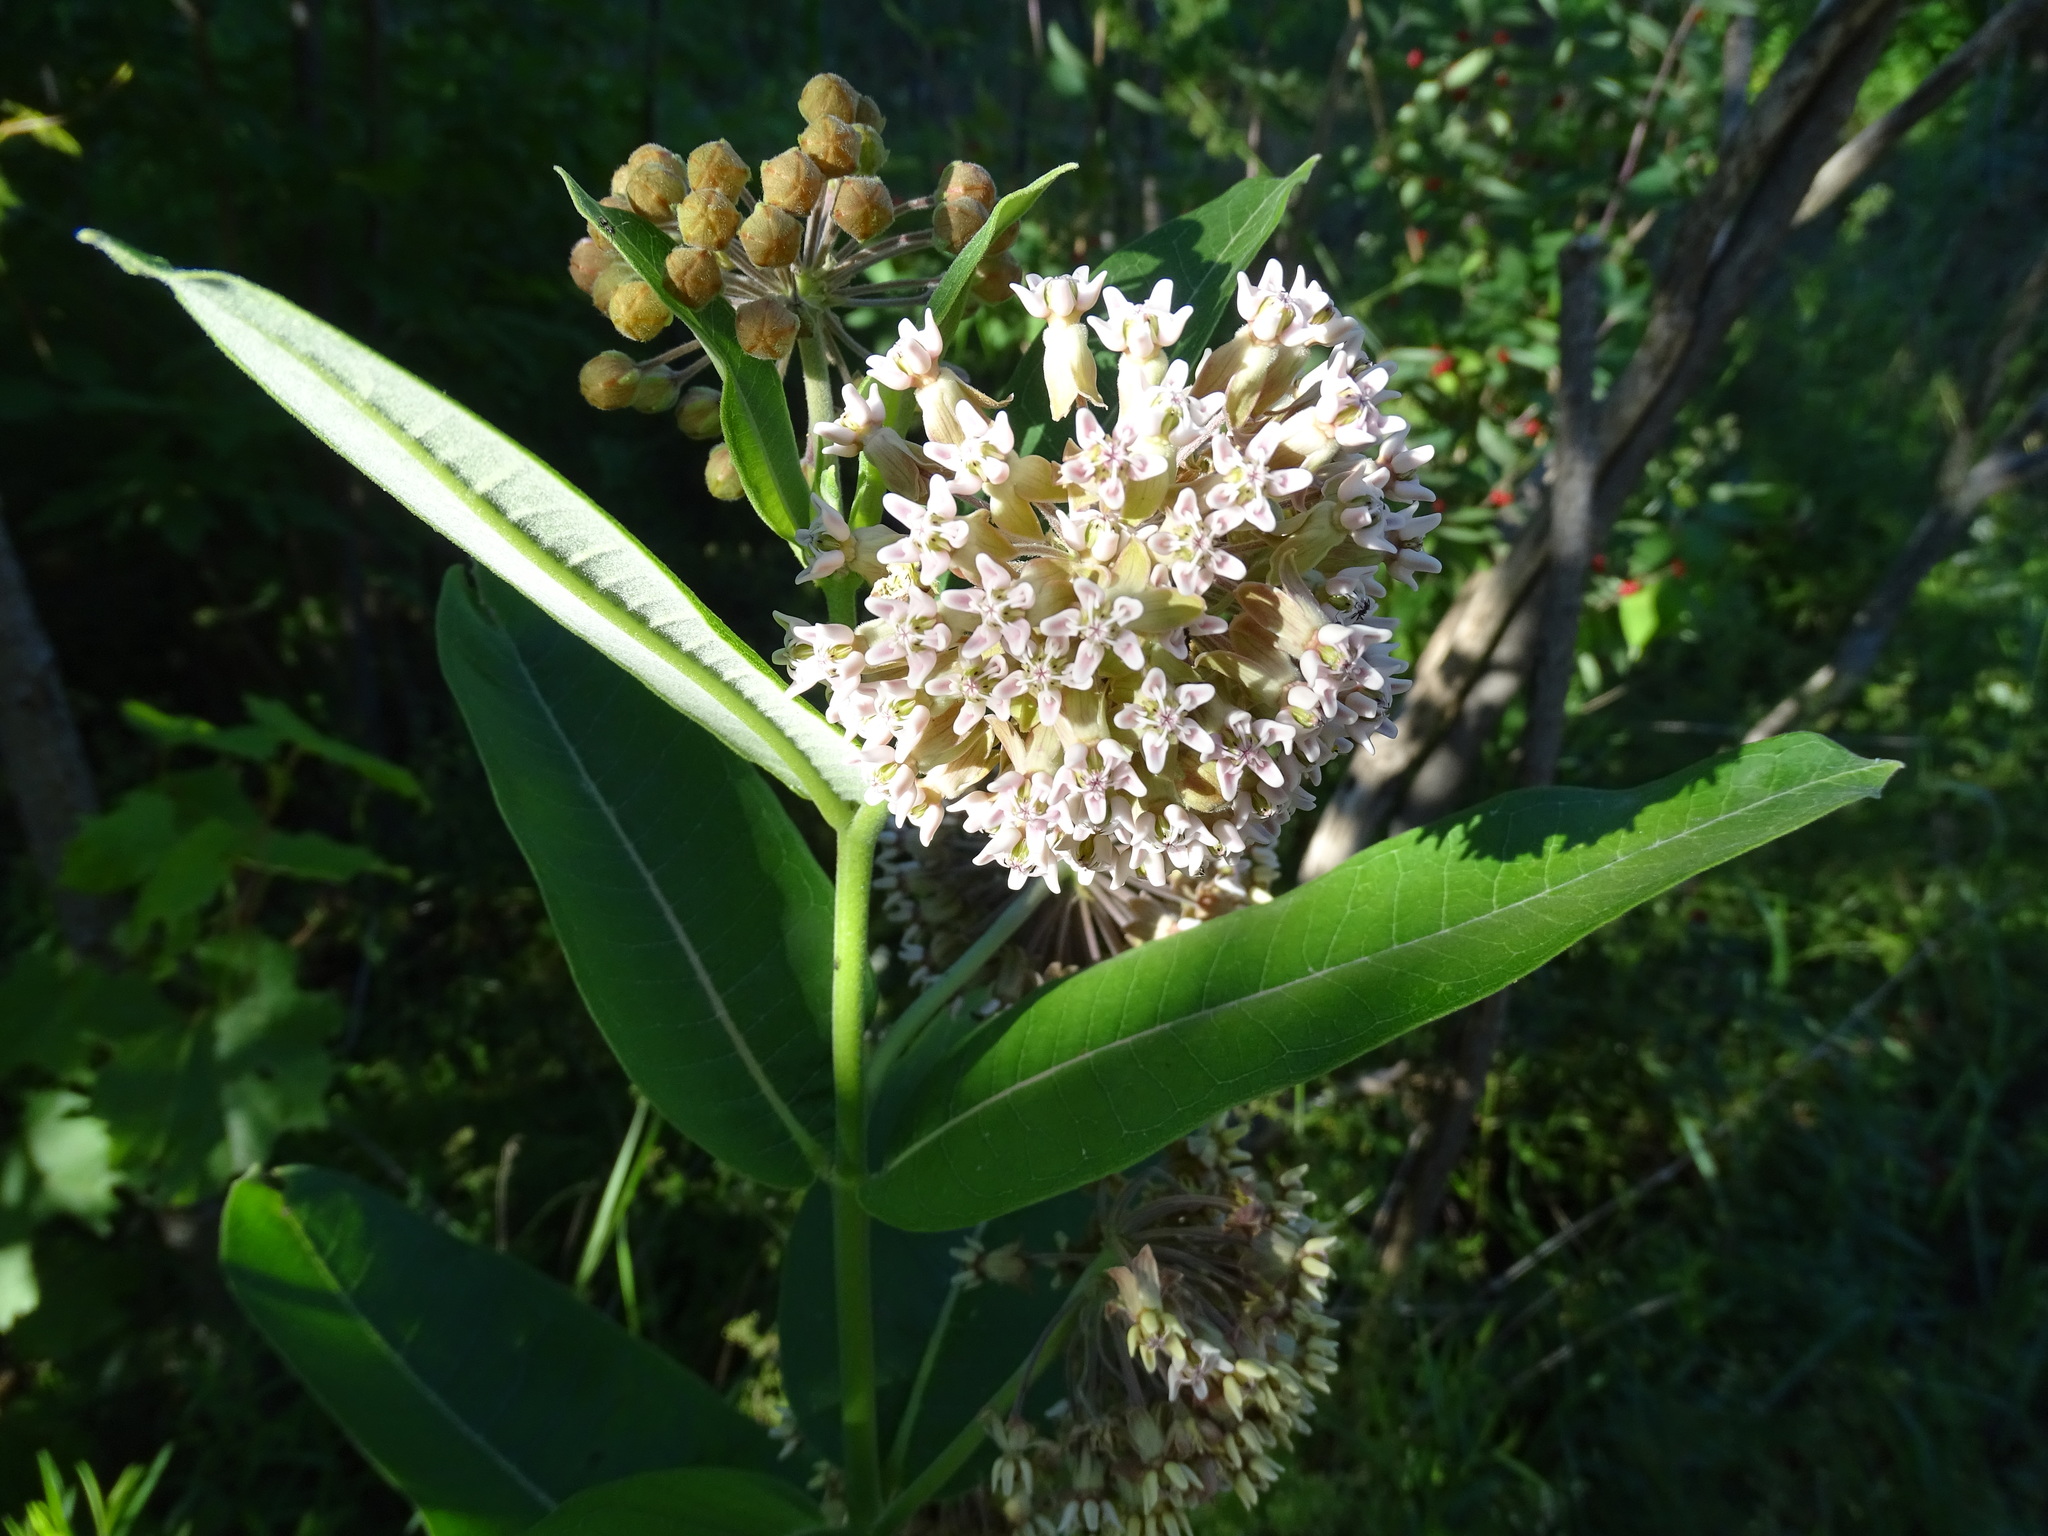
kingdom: Plantae
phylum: Tracheophyta
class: Magnoliopsida
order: Gentianales
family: Apocynaceae
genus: Asclepias
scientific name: Asclepias syriaca
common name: Common milkweed
